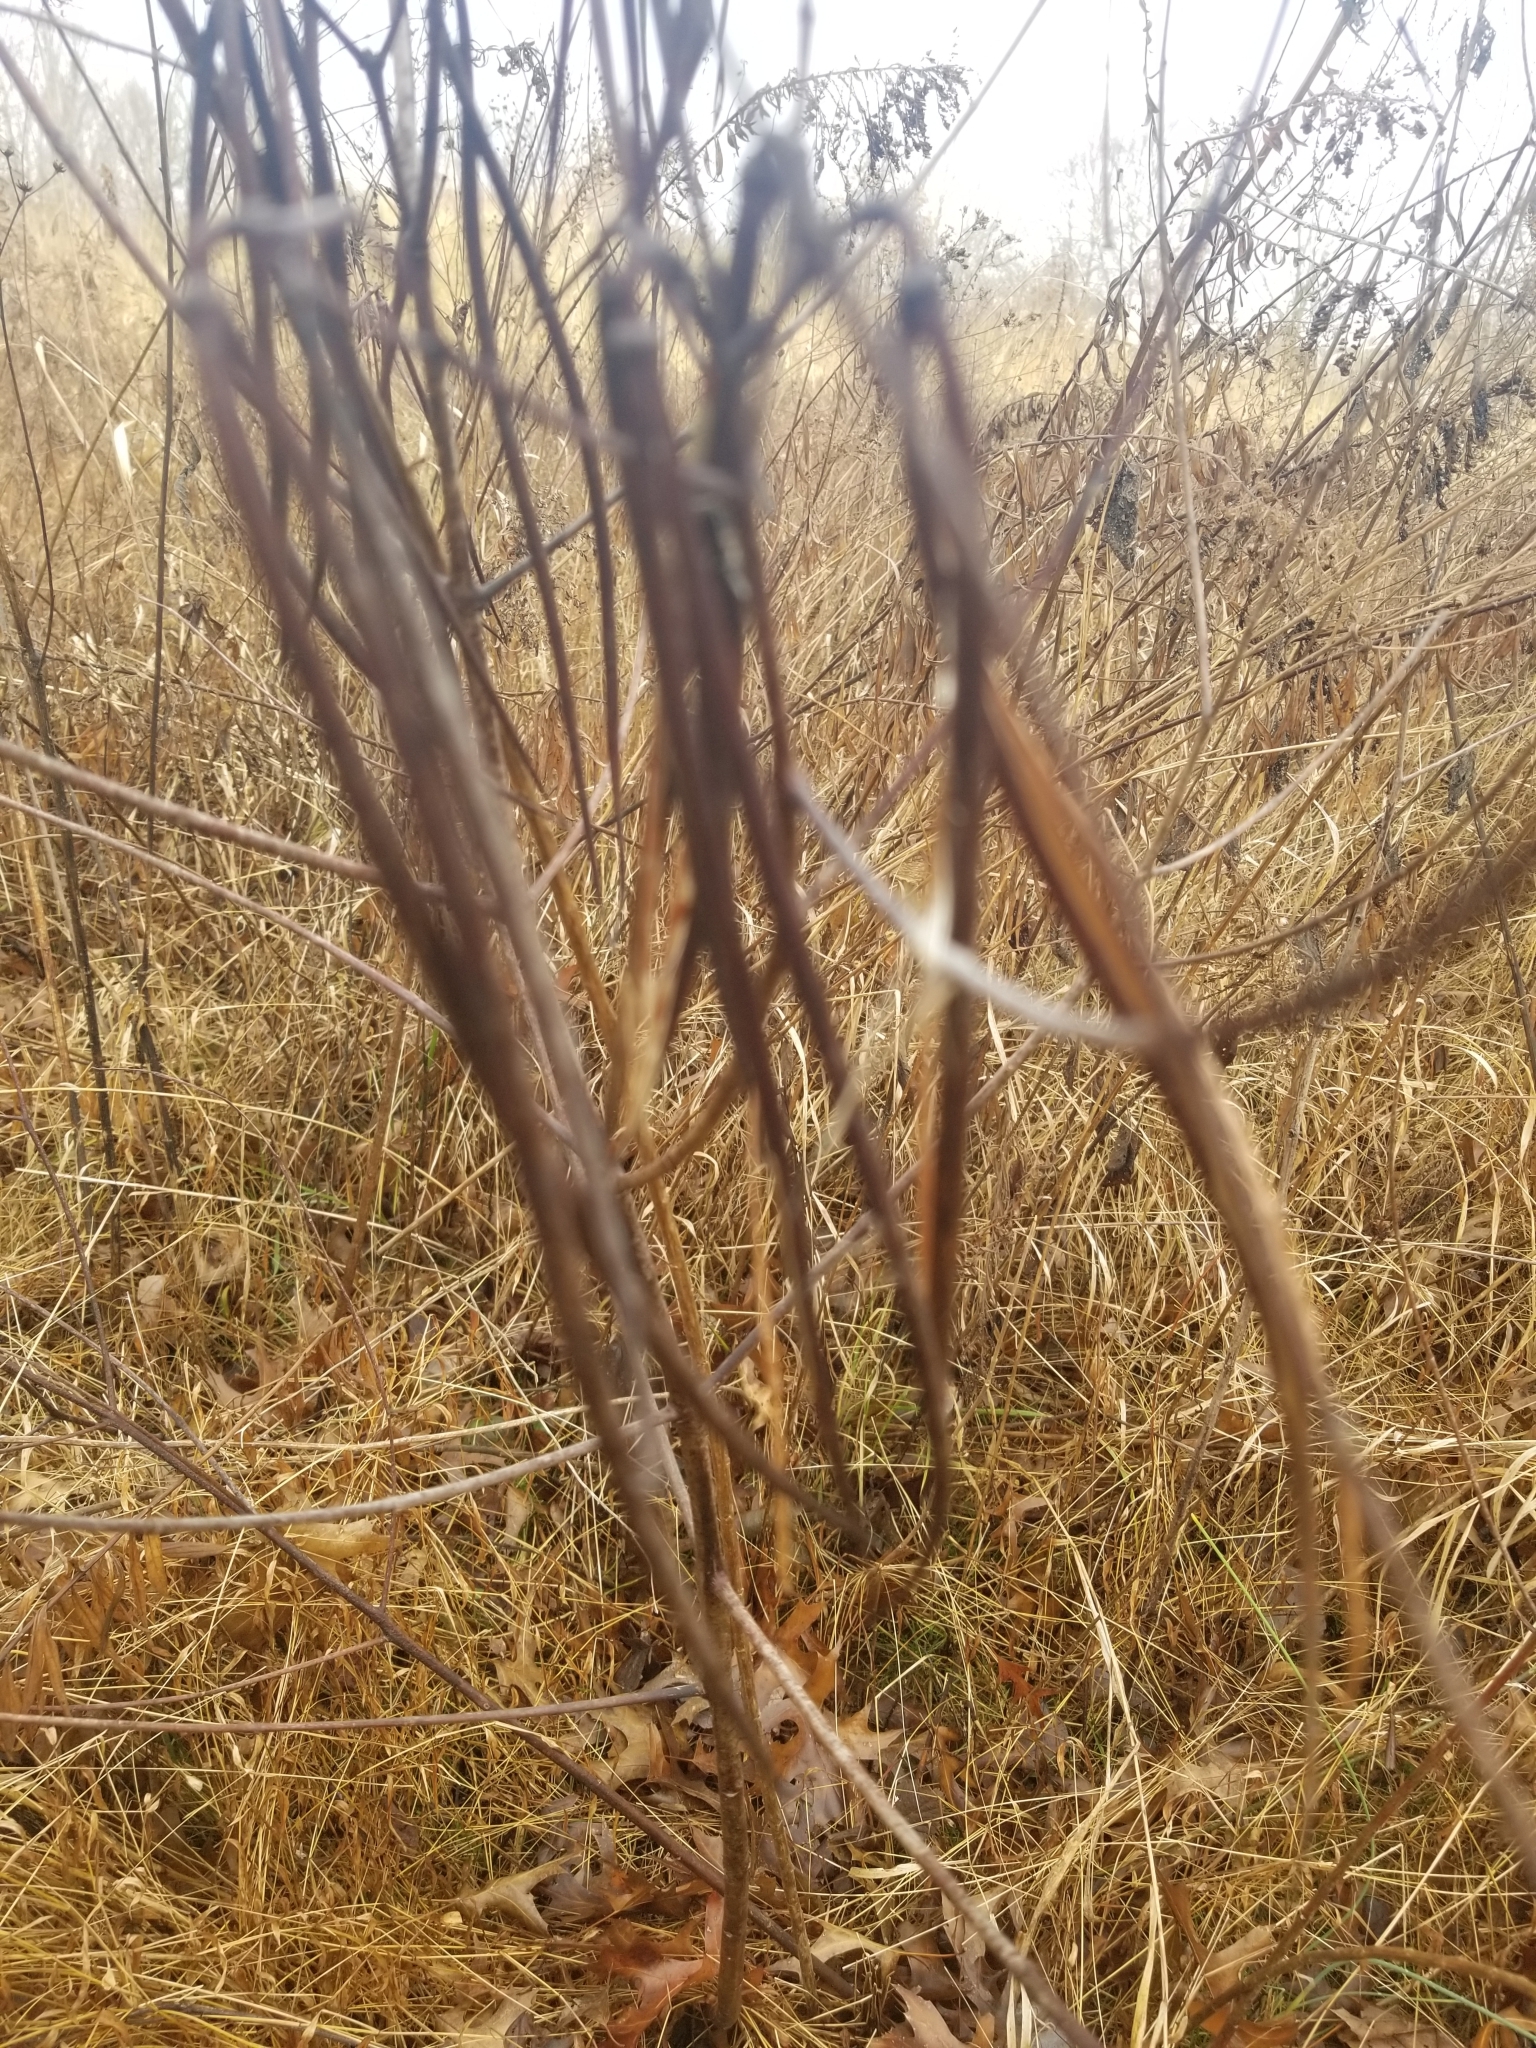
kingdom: Plantae
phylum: Tracheophyta
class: Magnoliopsida
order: Gentianales
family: Apocynaceae
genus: Apocynum
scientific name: Apocynum cannabinum
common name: Hemp dogbane
